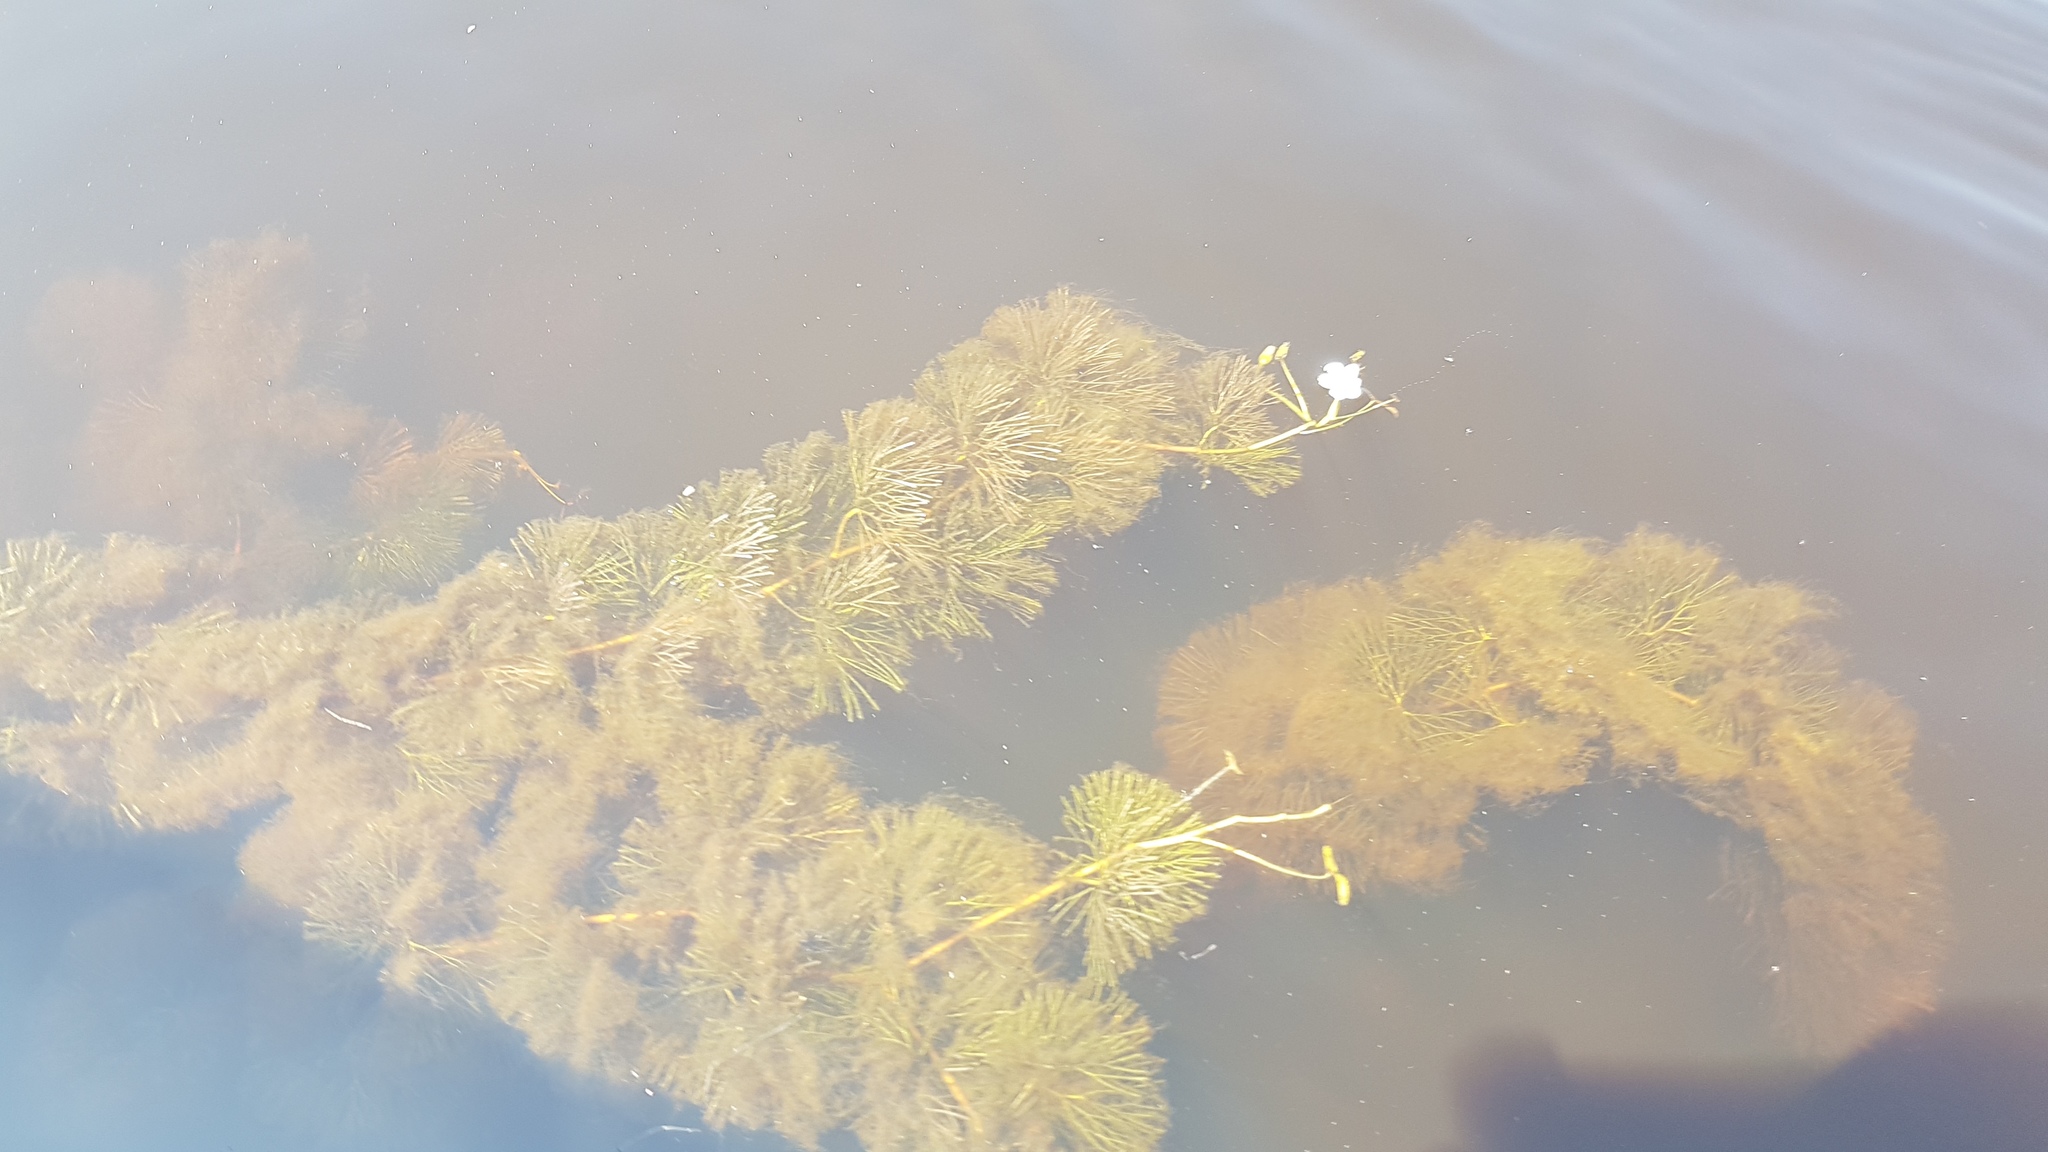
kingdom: Plantae
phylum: Tracheophyta
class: Magnoliopsida
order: Nymphaeales
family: Cabombaceae
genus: Cabomba
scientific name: Cabomba caroliniana
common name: Fanwort
